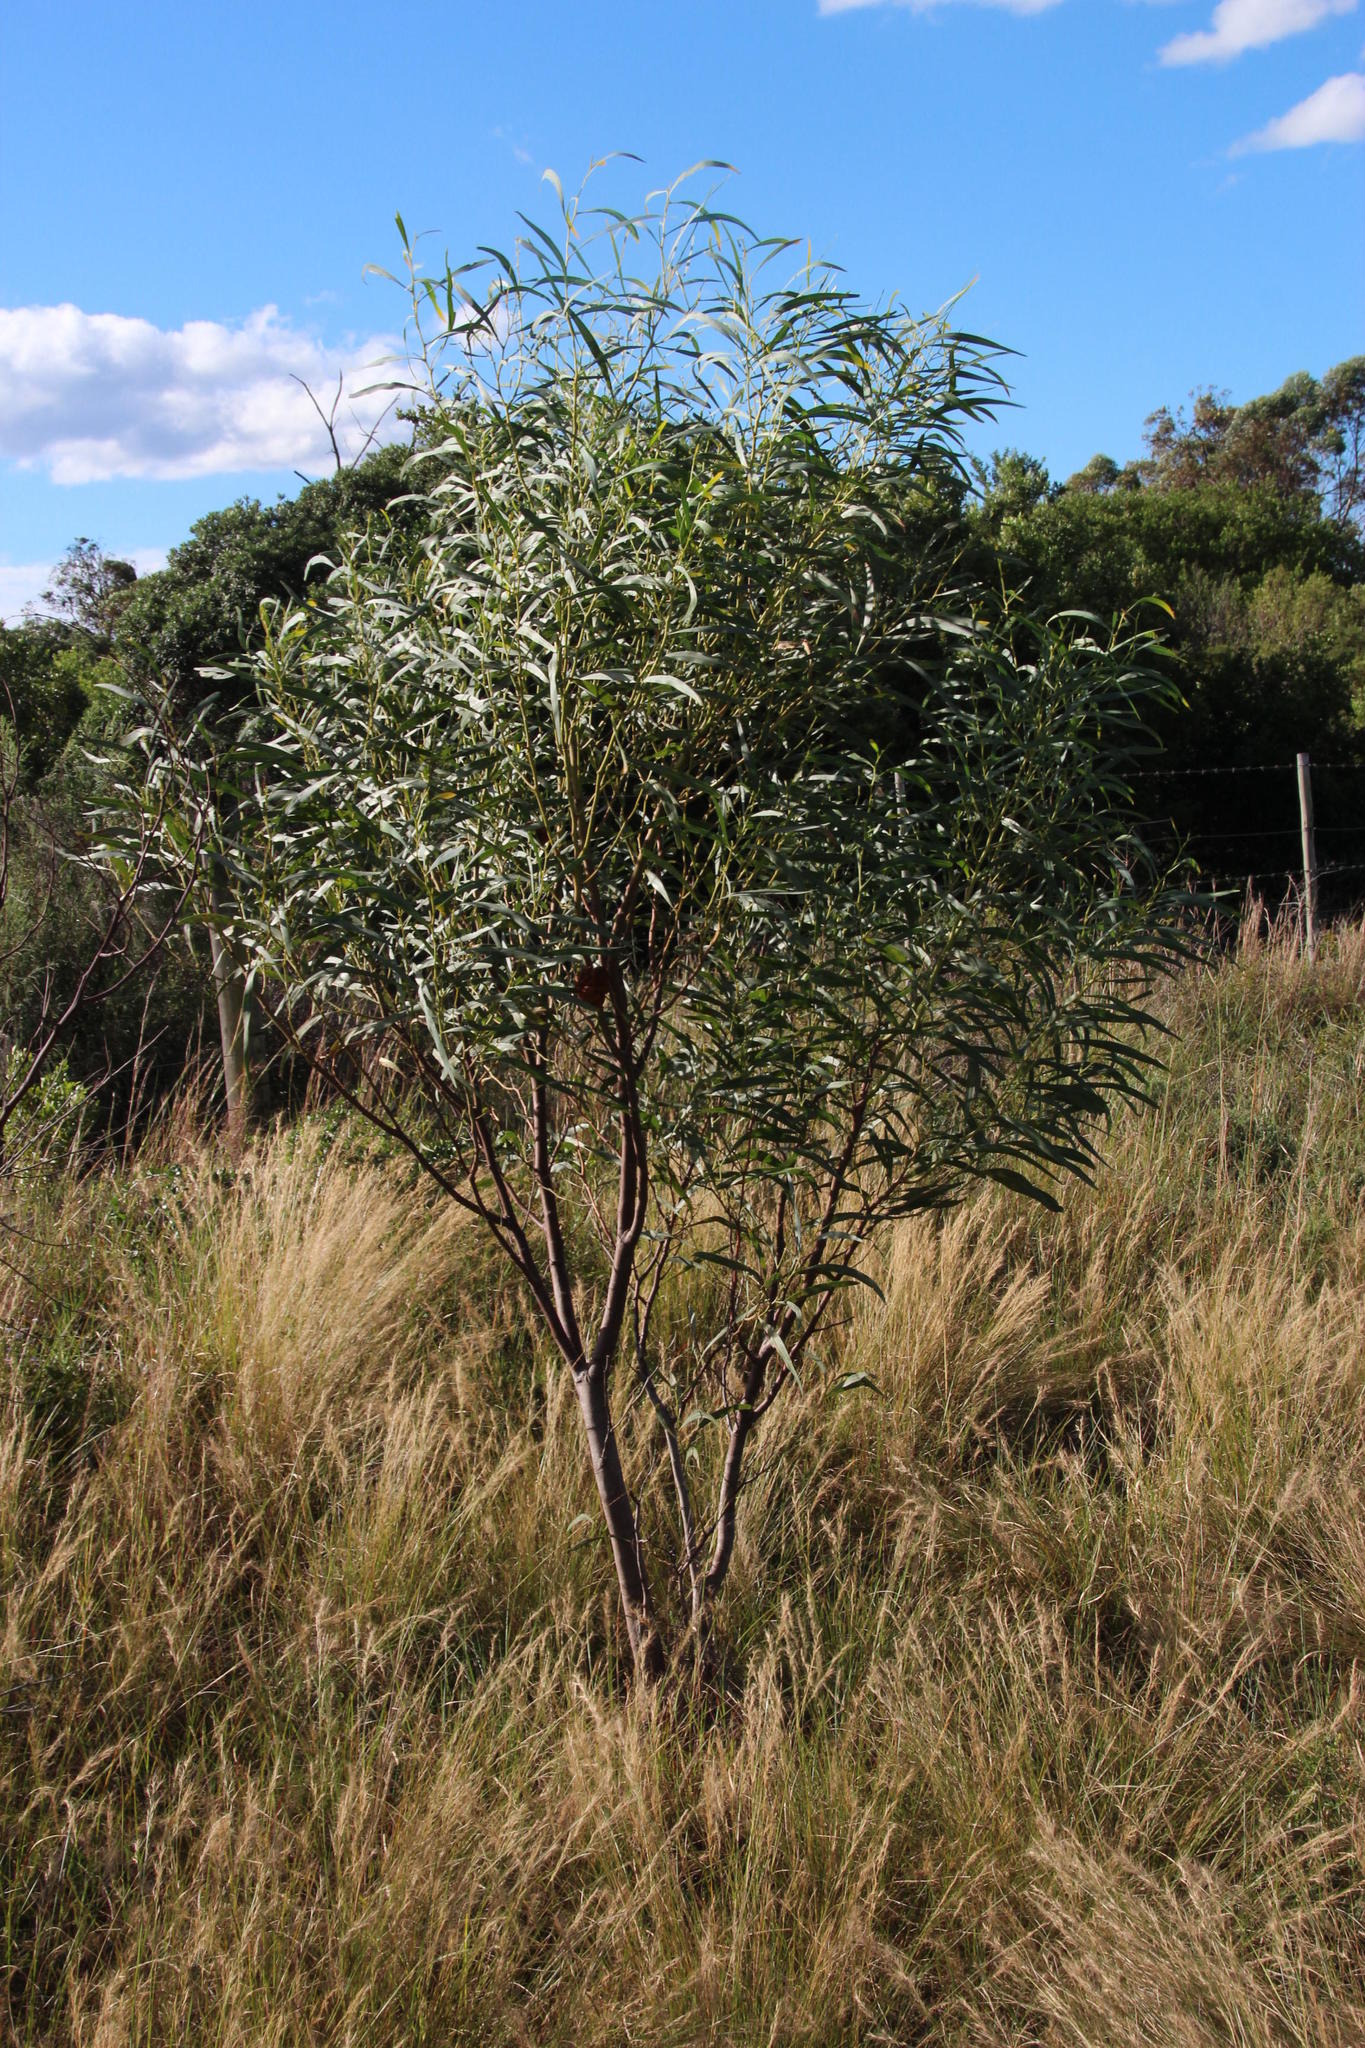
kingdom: Plantae
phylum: Tracheophyta
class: Magnoliopsida
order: Fabales
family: Fabaceae
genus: Acacia
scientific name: Acacia saligna
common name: Orange wattle
